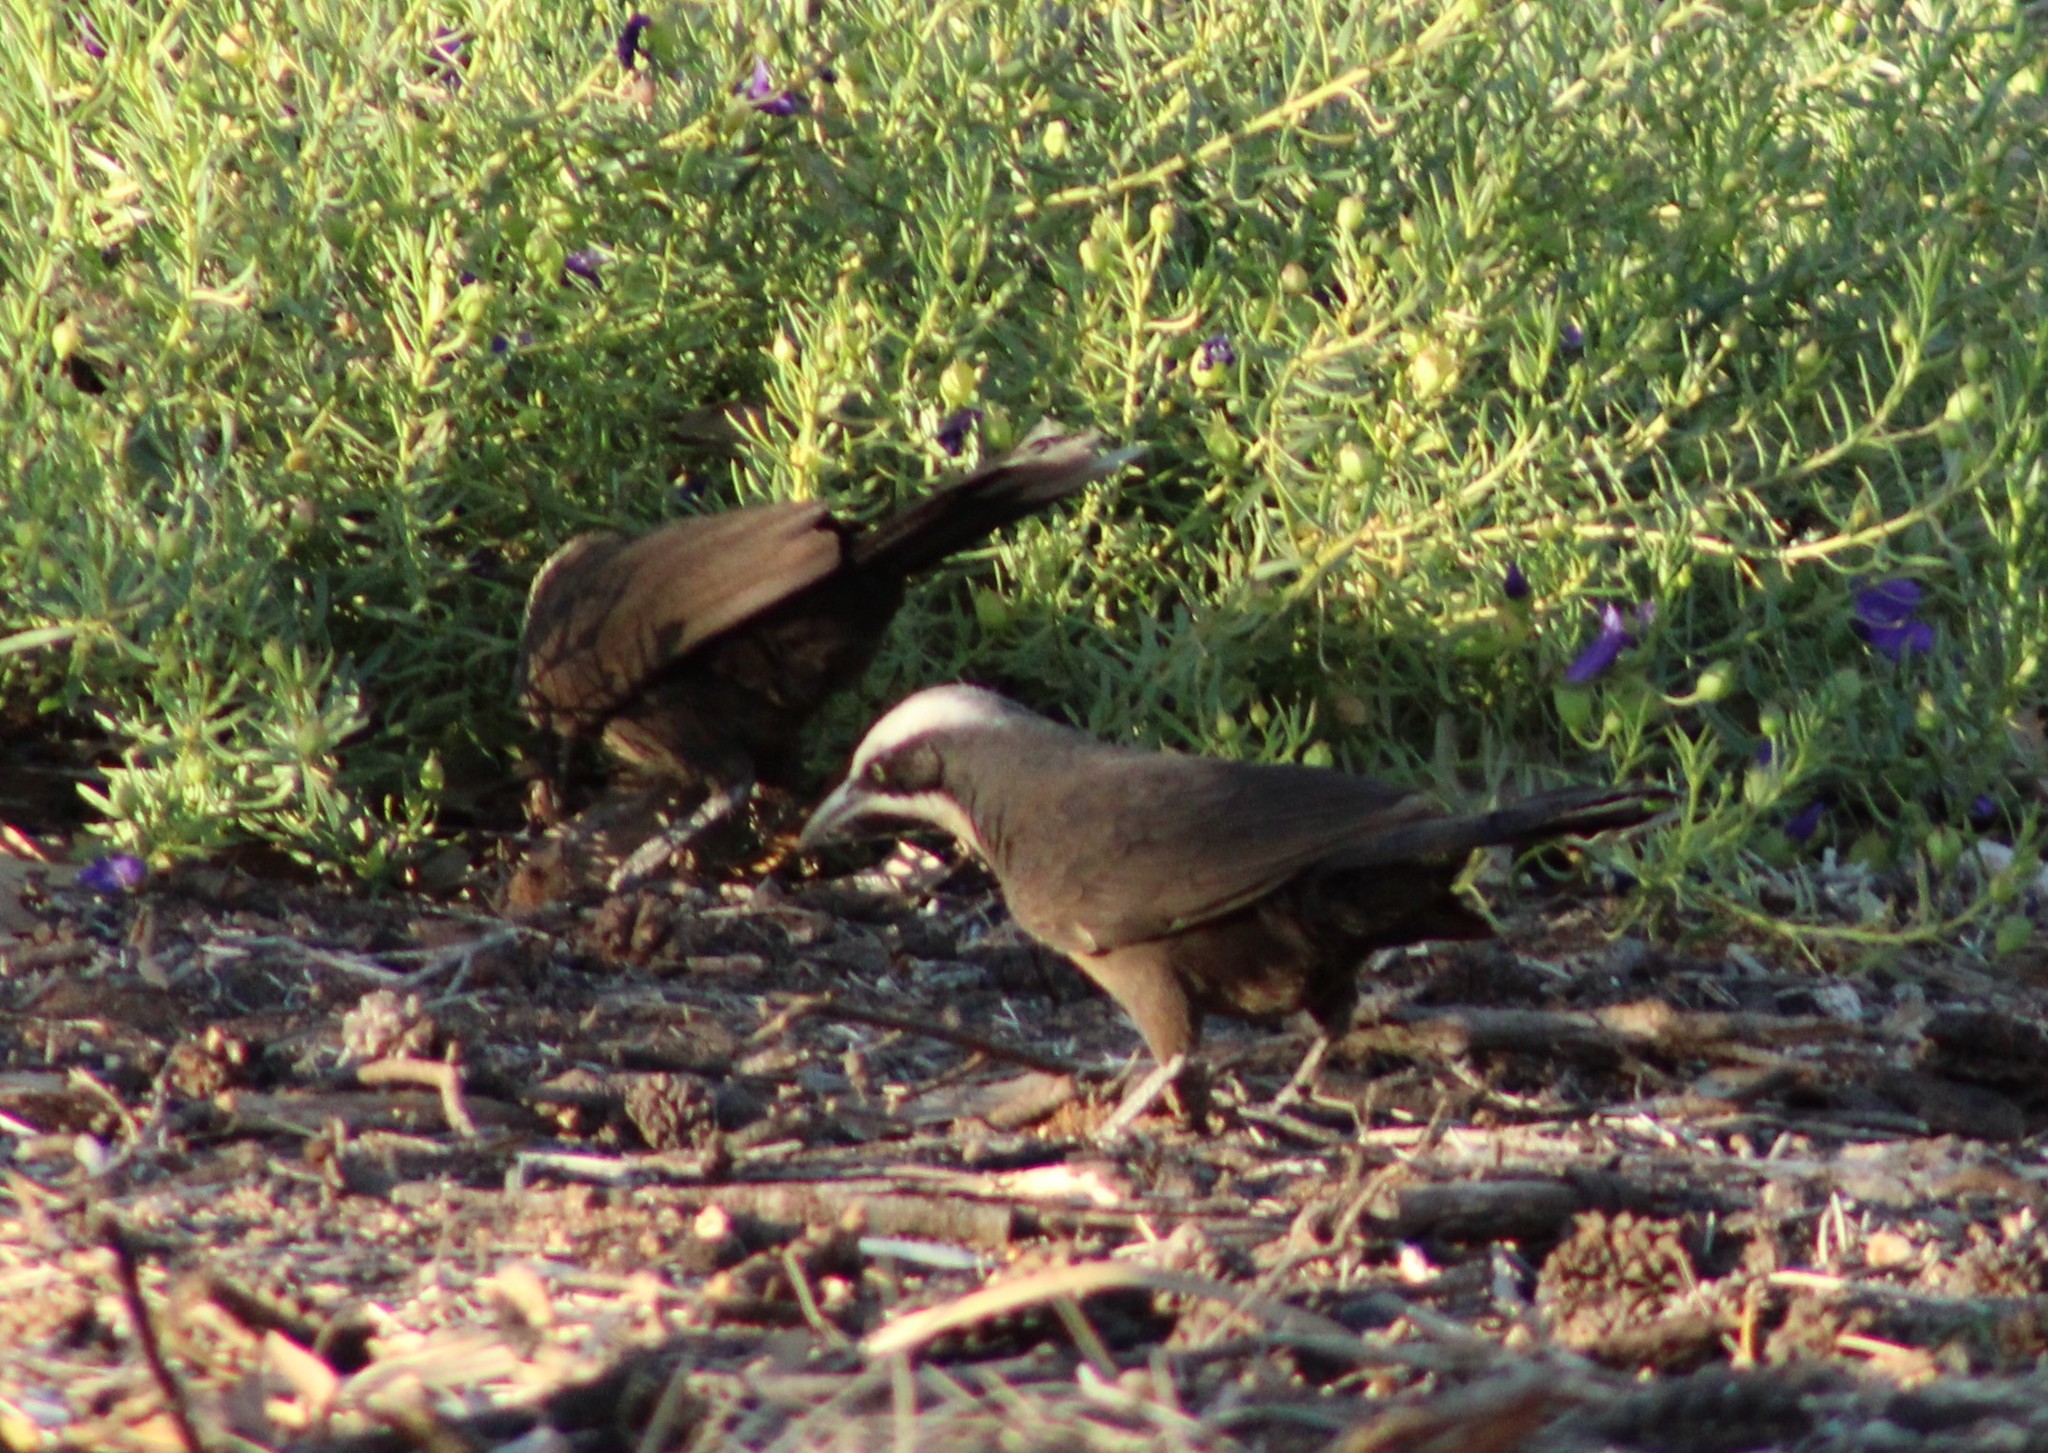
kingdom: Animalia
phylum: Chordata
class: Aves
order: Passeriformes
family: Pomatostomidae
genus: Pomatostomus
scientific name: Pomatostomus temporalis
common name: Grey-crowned babbler
